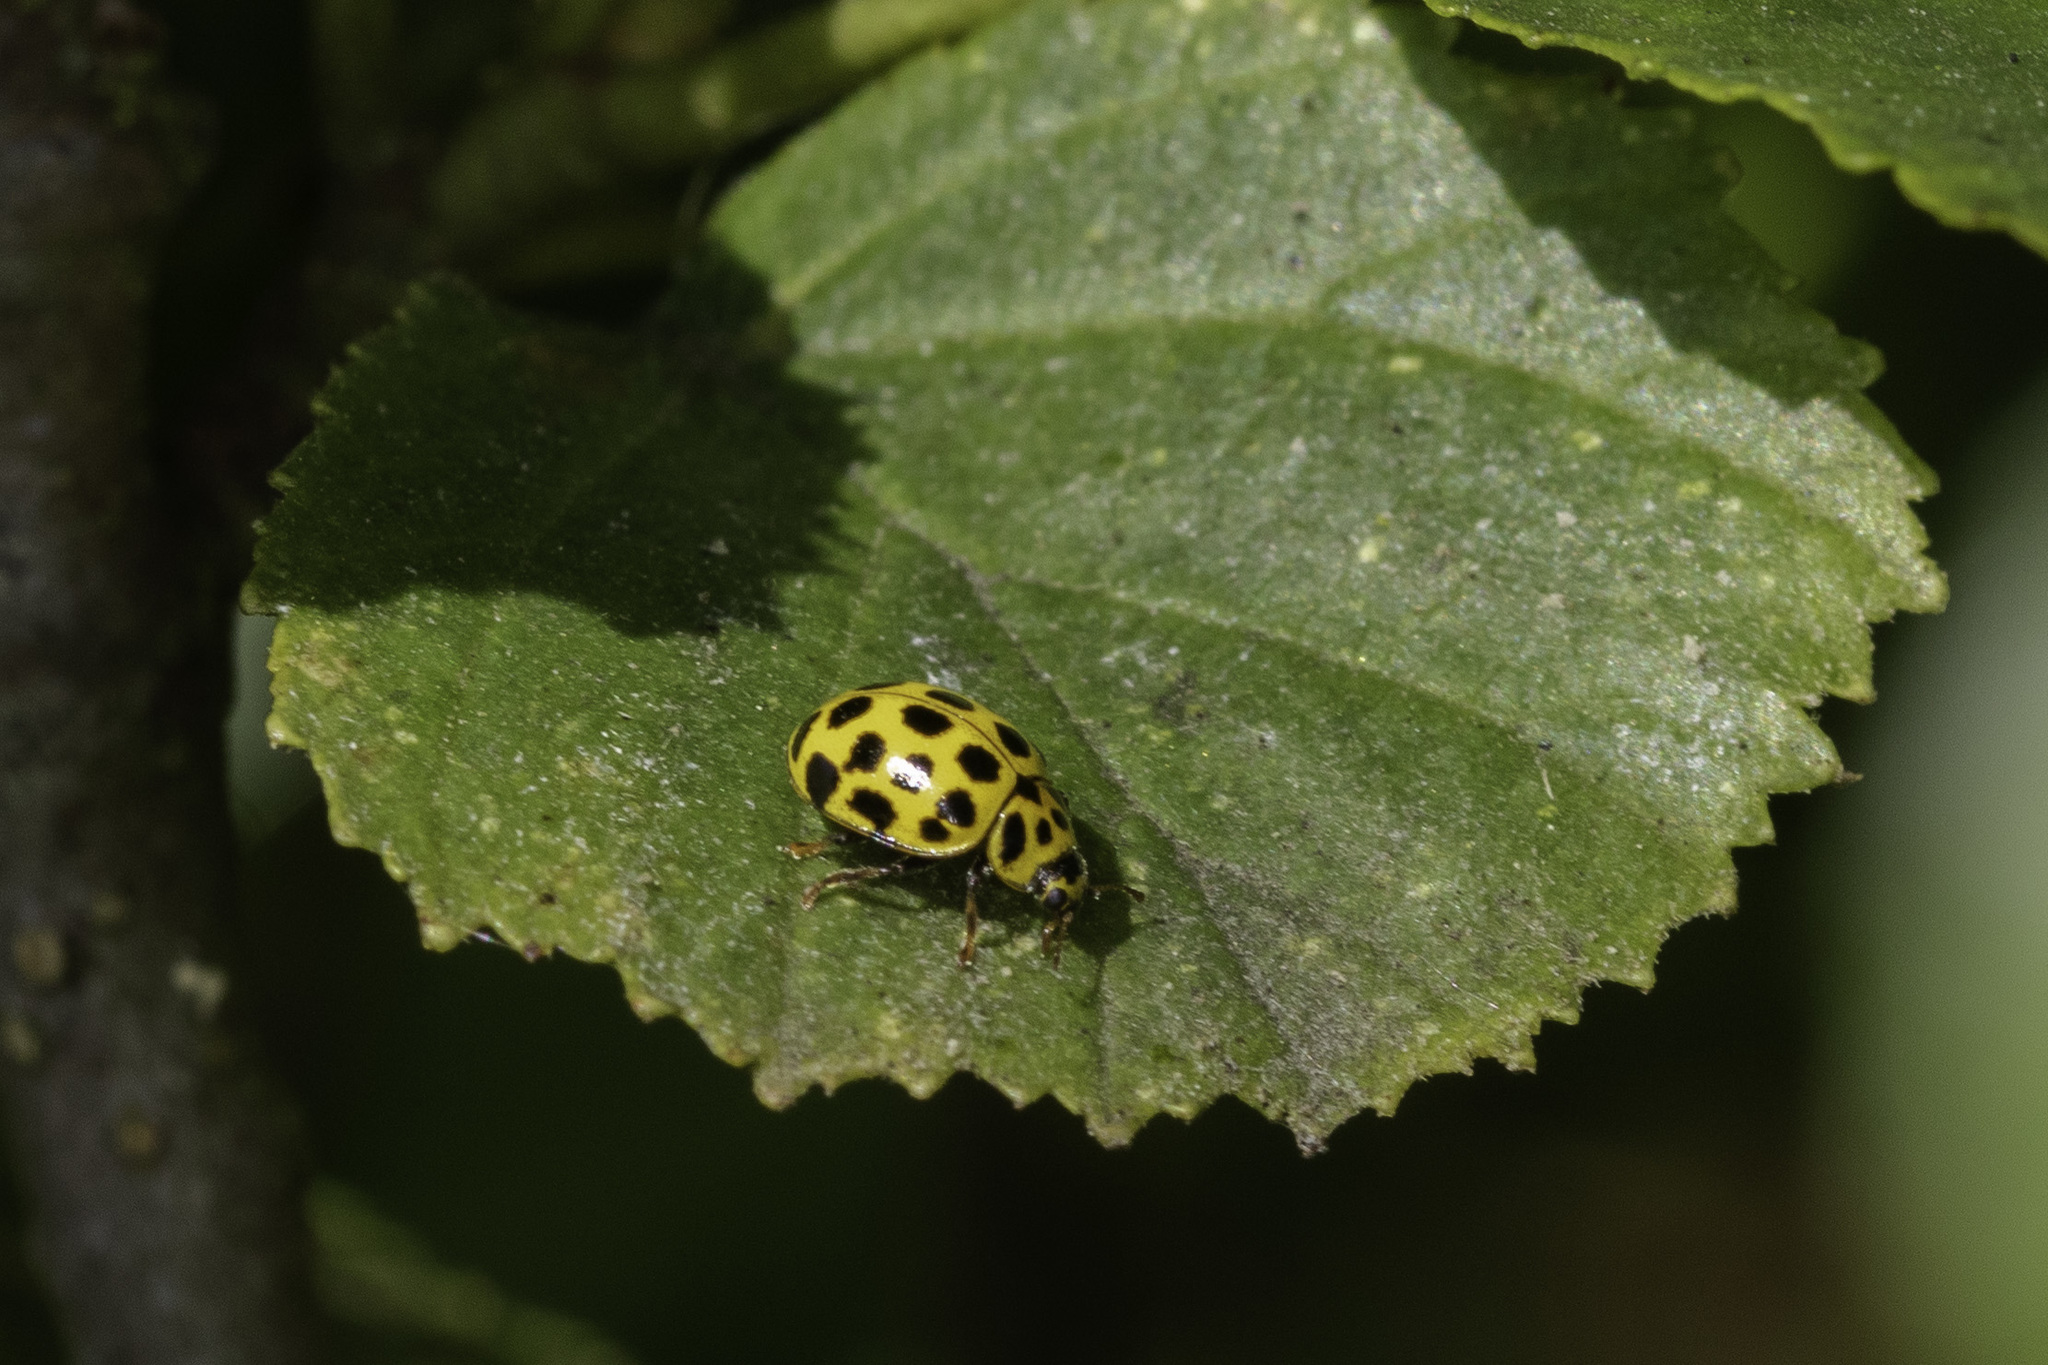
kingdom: Animalia
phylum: Arthropoda
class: Insecta
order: Coleoptera
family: Coccinellidae
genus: Psyllobora
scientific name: Psyllobora vigintiduopunctata
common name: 22-spot ladybird
